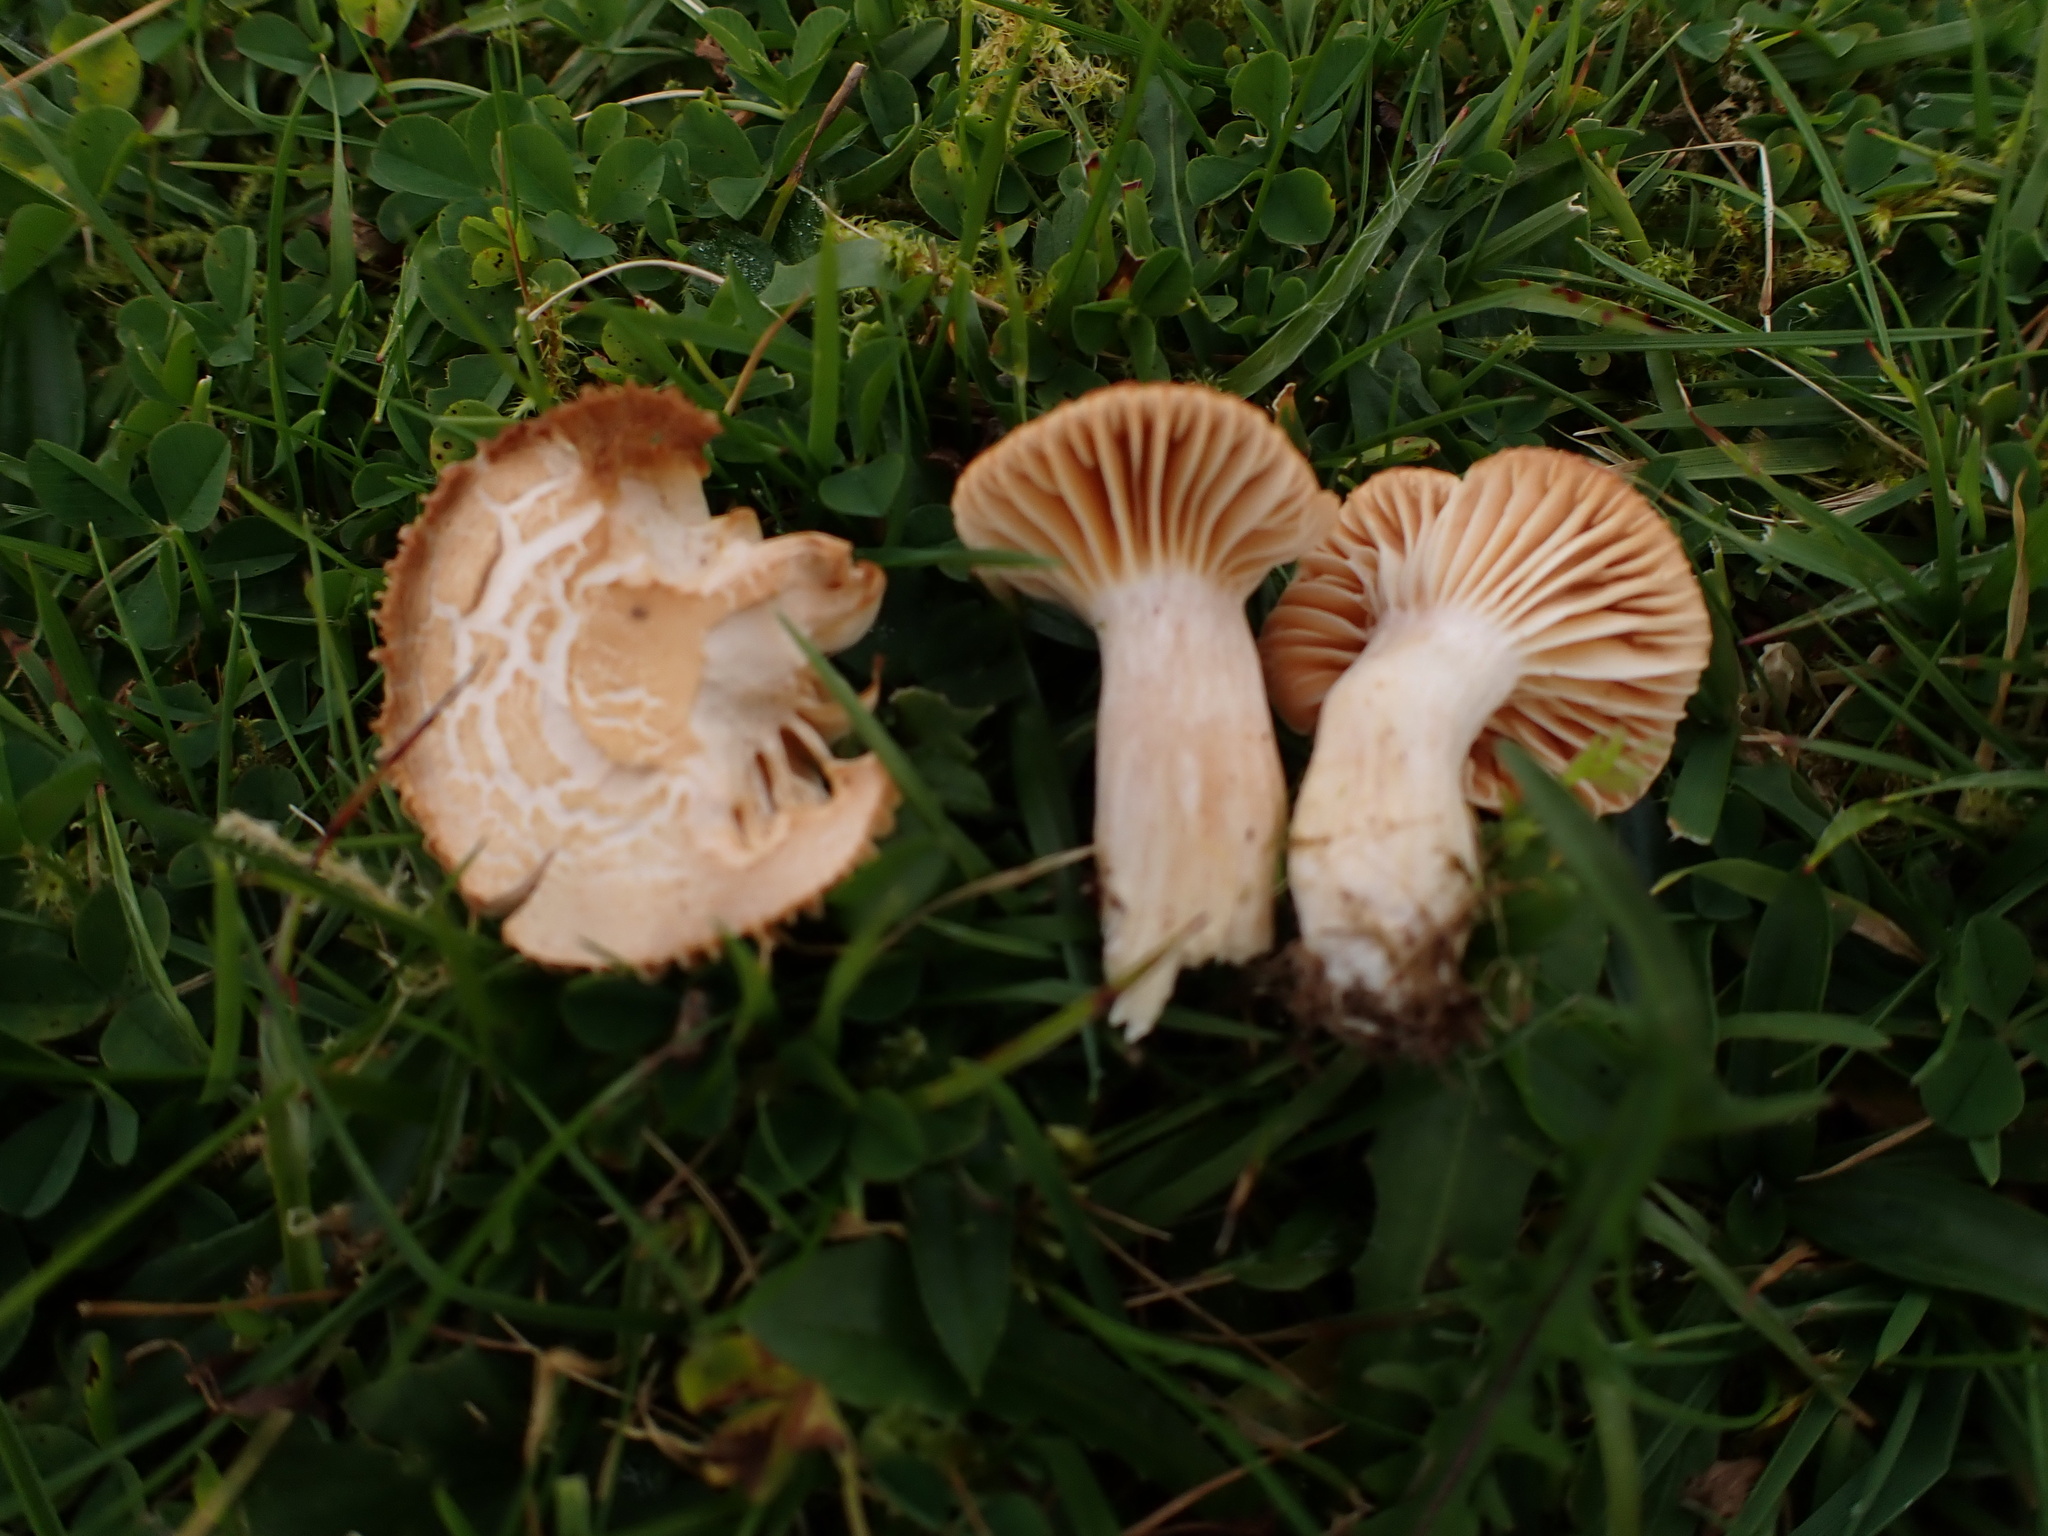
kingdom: Fungi
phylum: Basidiomycota
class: Agaricomycetes
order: Agaricales
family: Hygrophoraceae
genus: Cuphophyllus
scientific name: Cuphophyllus pratensis
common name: Meadow waxcap
